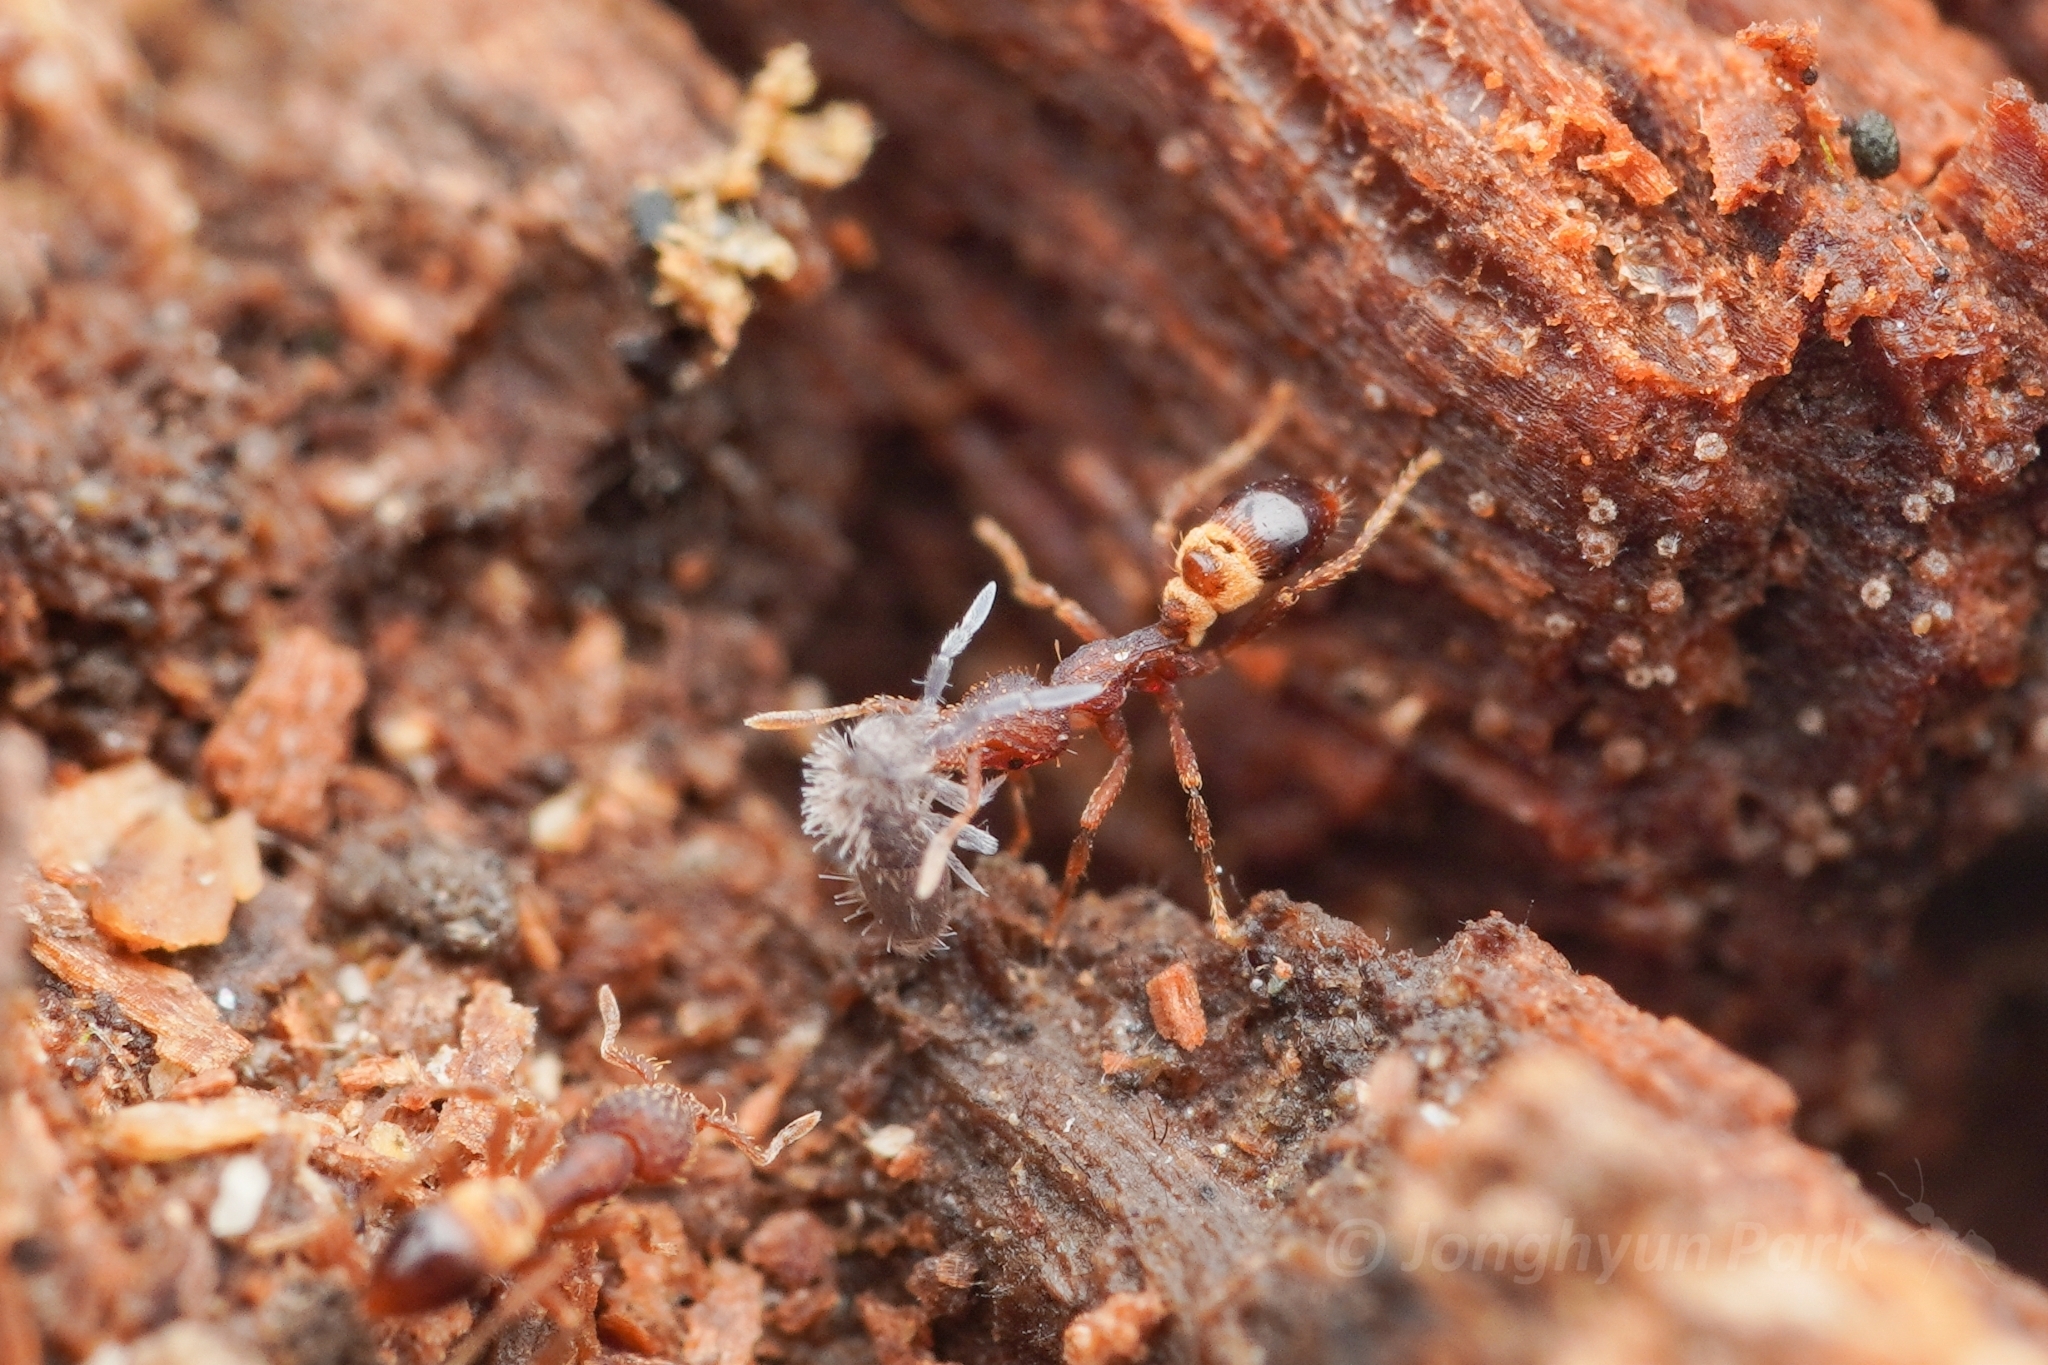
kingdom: Animalia
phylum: Arthropoda
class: Insecta
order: Hymenoptera
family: Formicidae
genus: Strumigenys
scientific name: Strumigenys
